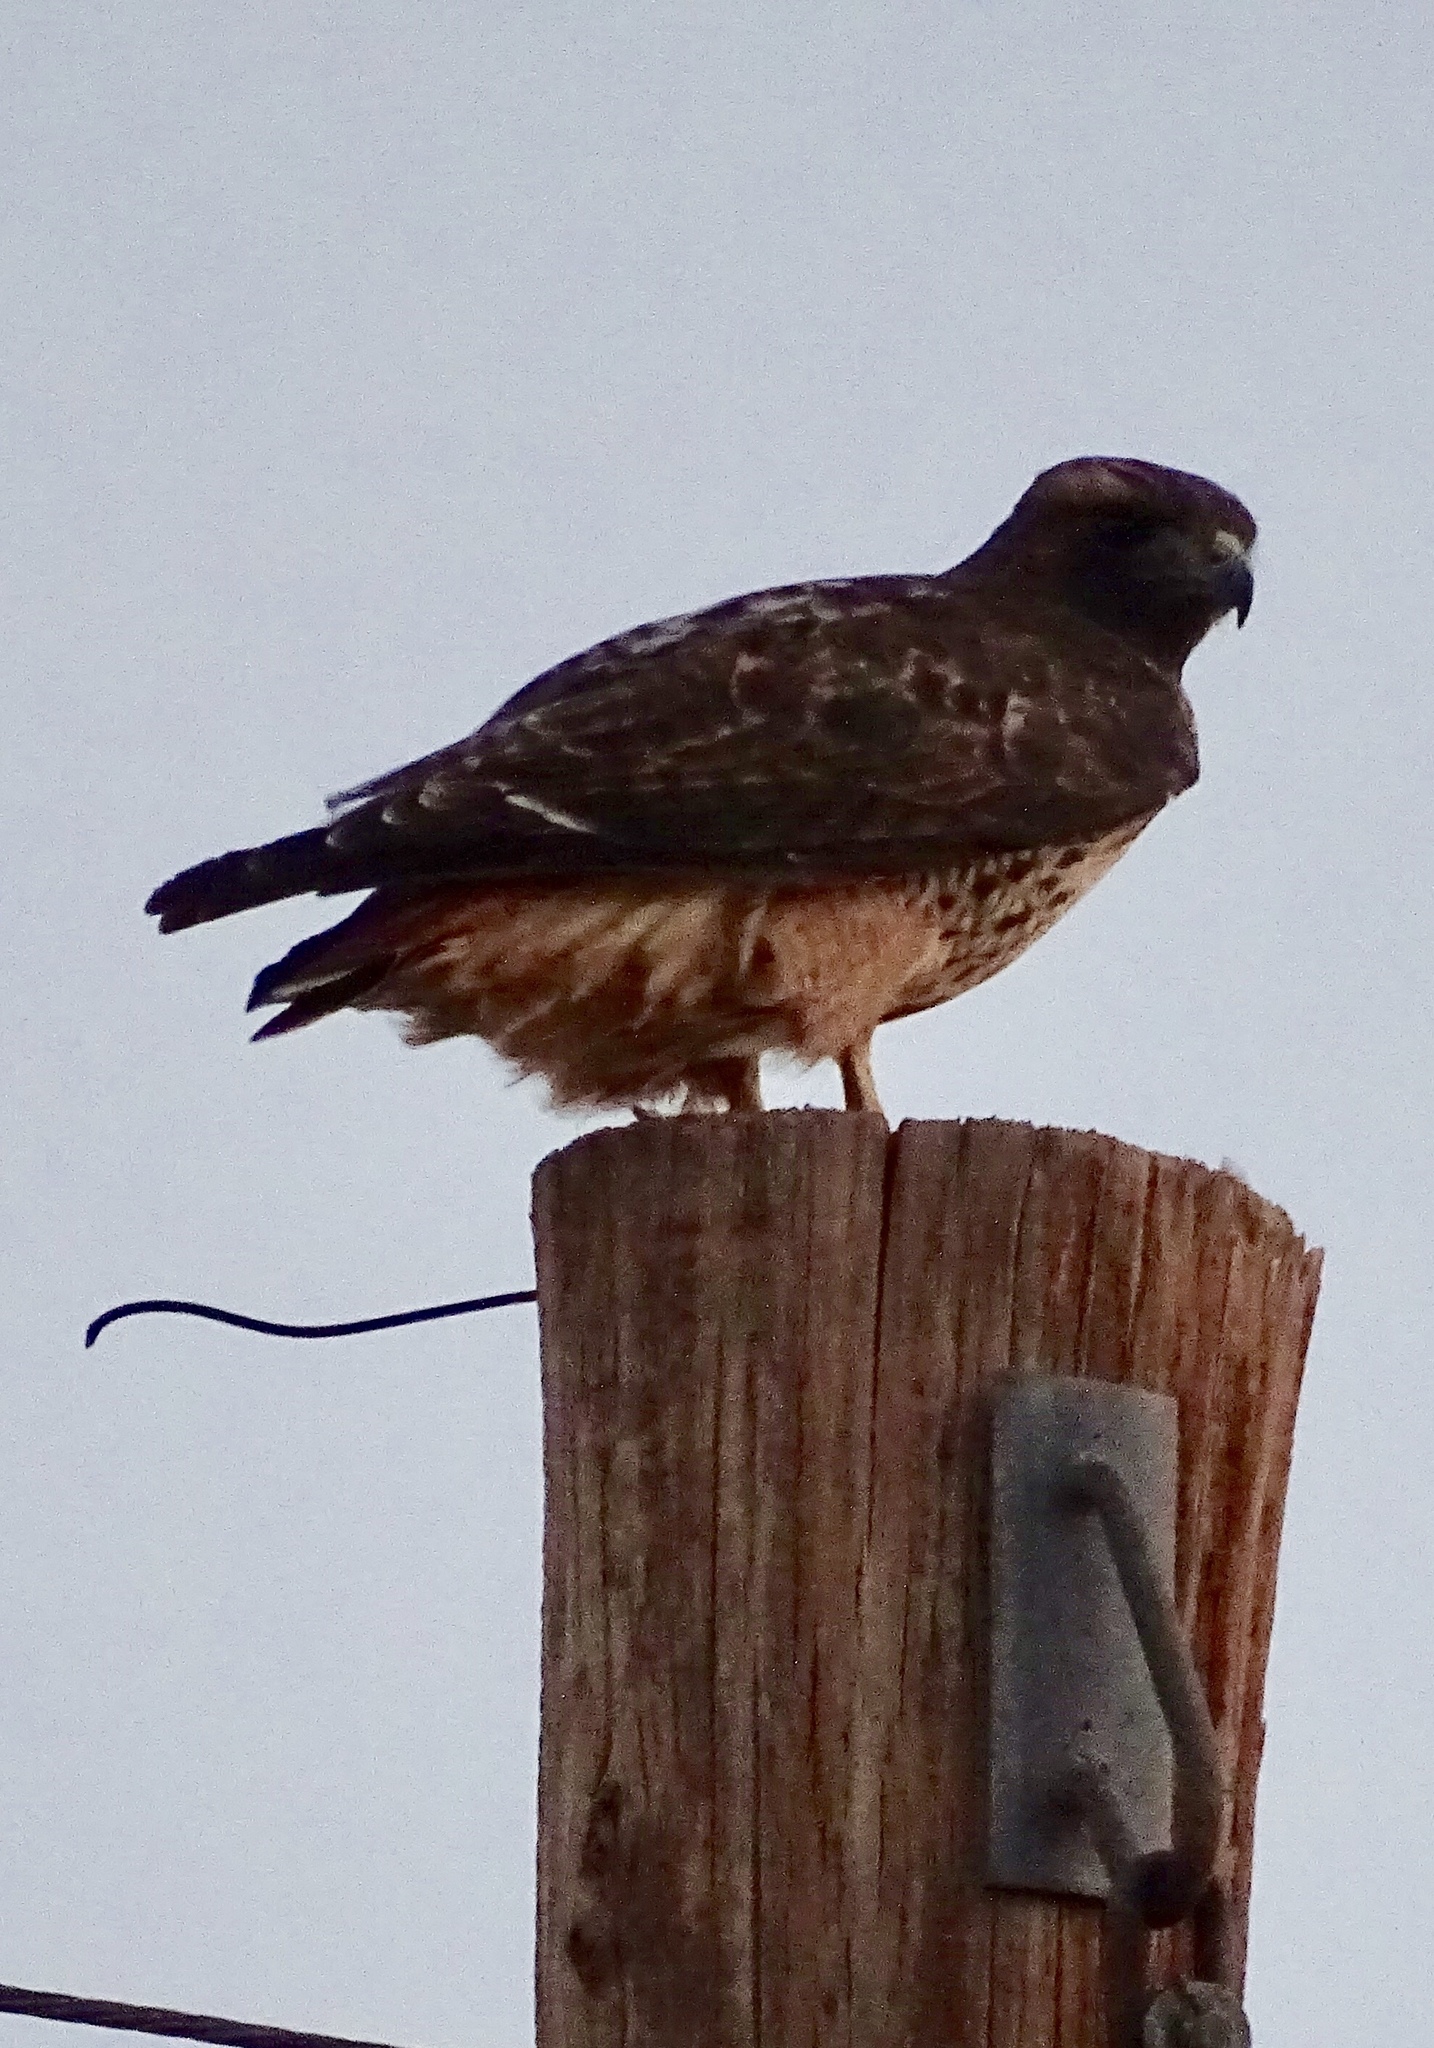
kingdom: Animalia
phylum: Chordata
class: Aves
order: Accipitriformes
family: Accipitridae
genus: Buteo
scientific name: Buteo jamaicensis
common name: Red-tailed hawk
